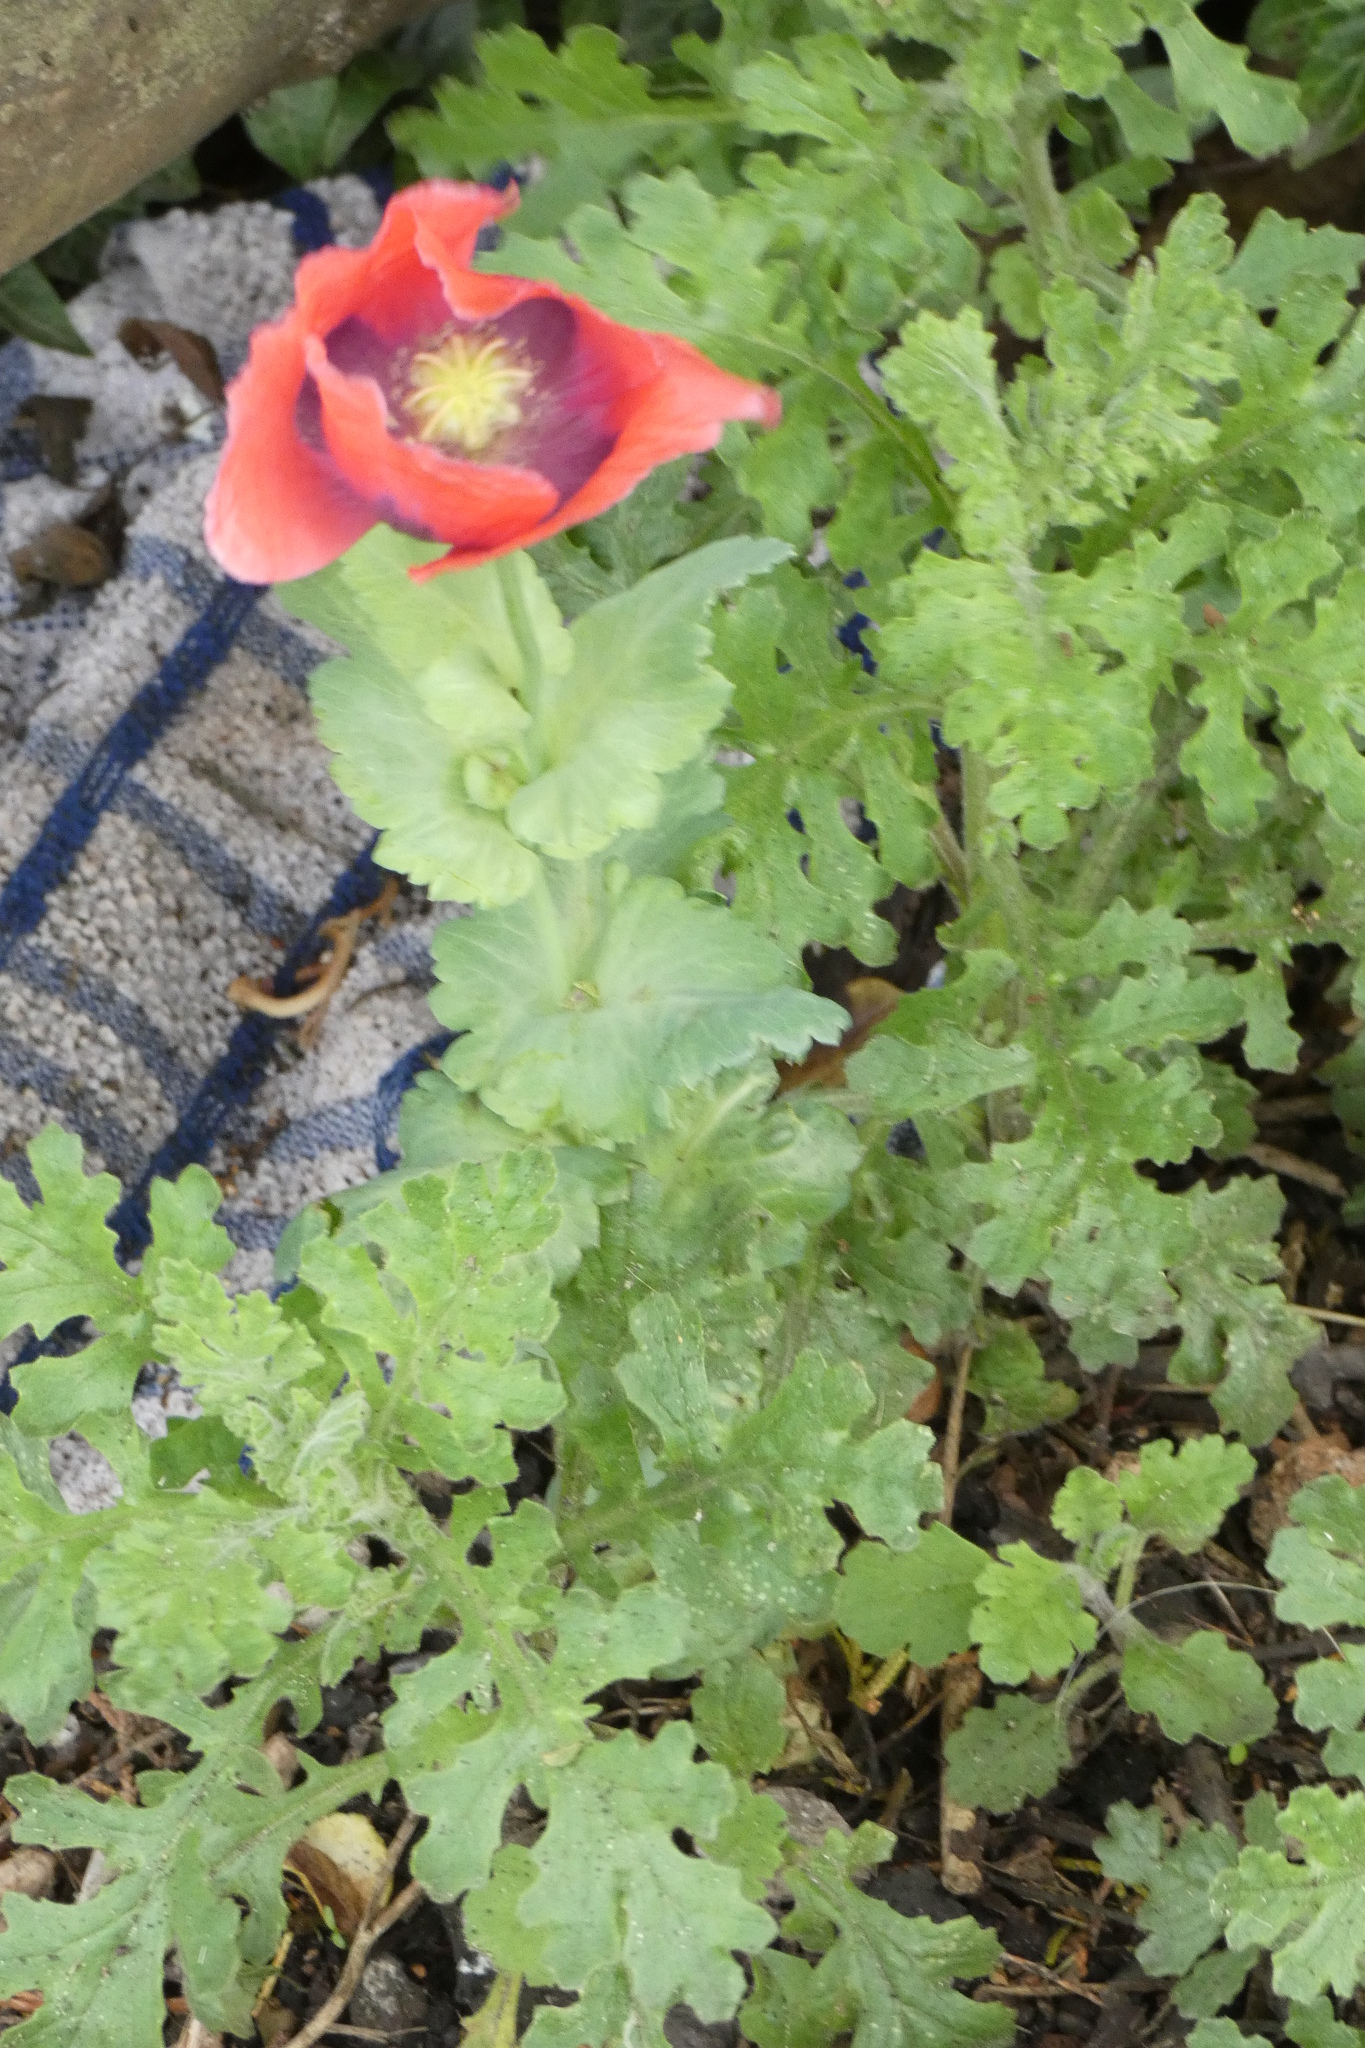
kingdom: Plantae
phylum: Tracheophyta
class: Magnoliopsida
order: Ranunculales
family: Papaveraceae
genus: Papaver
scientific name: Papaver somniferum
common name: Opium poppy
